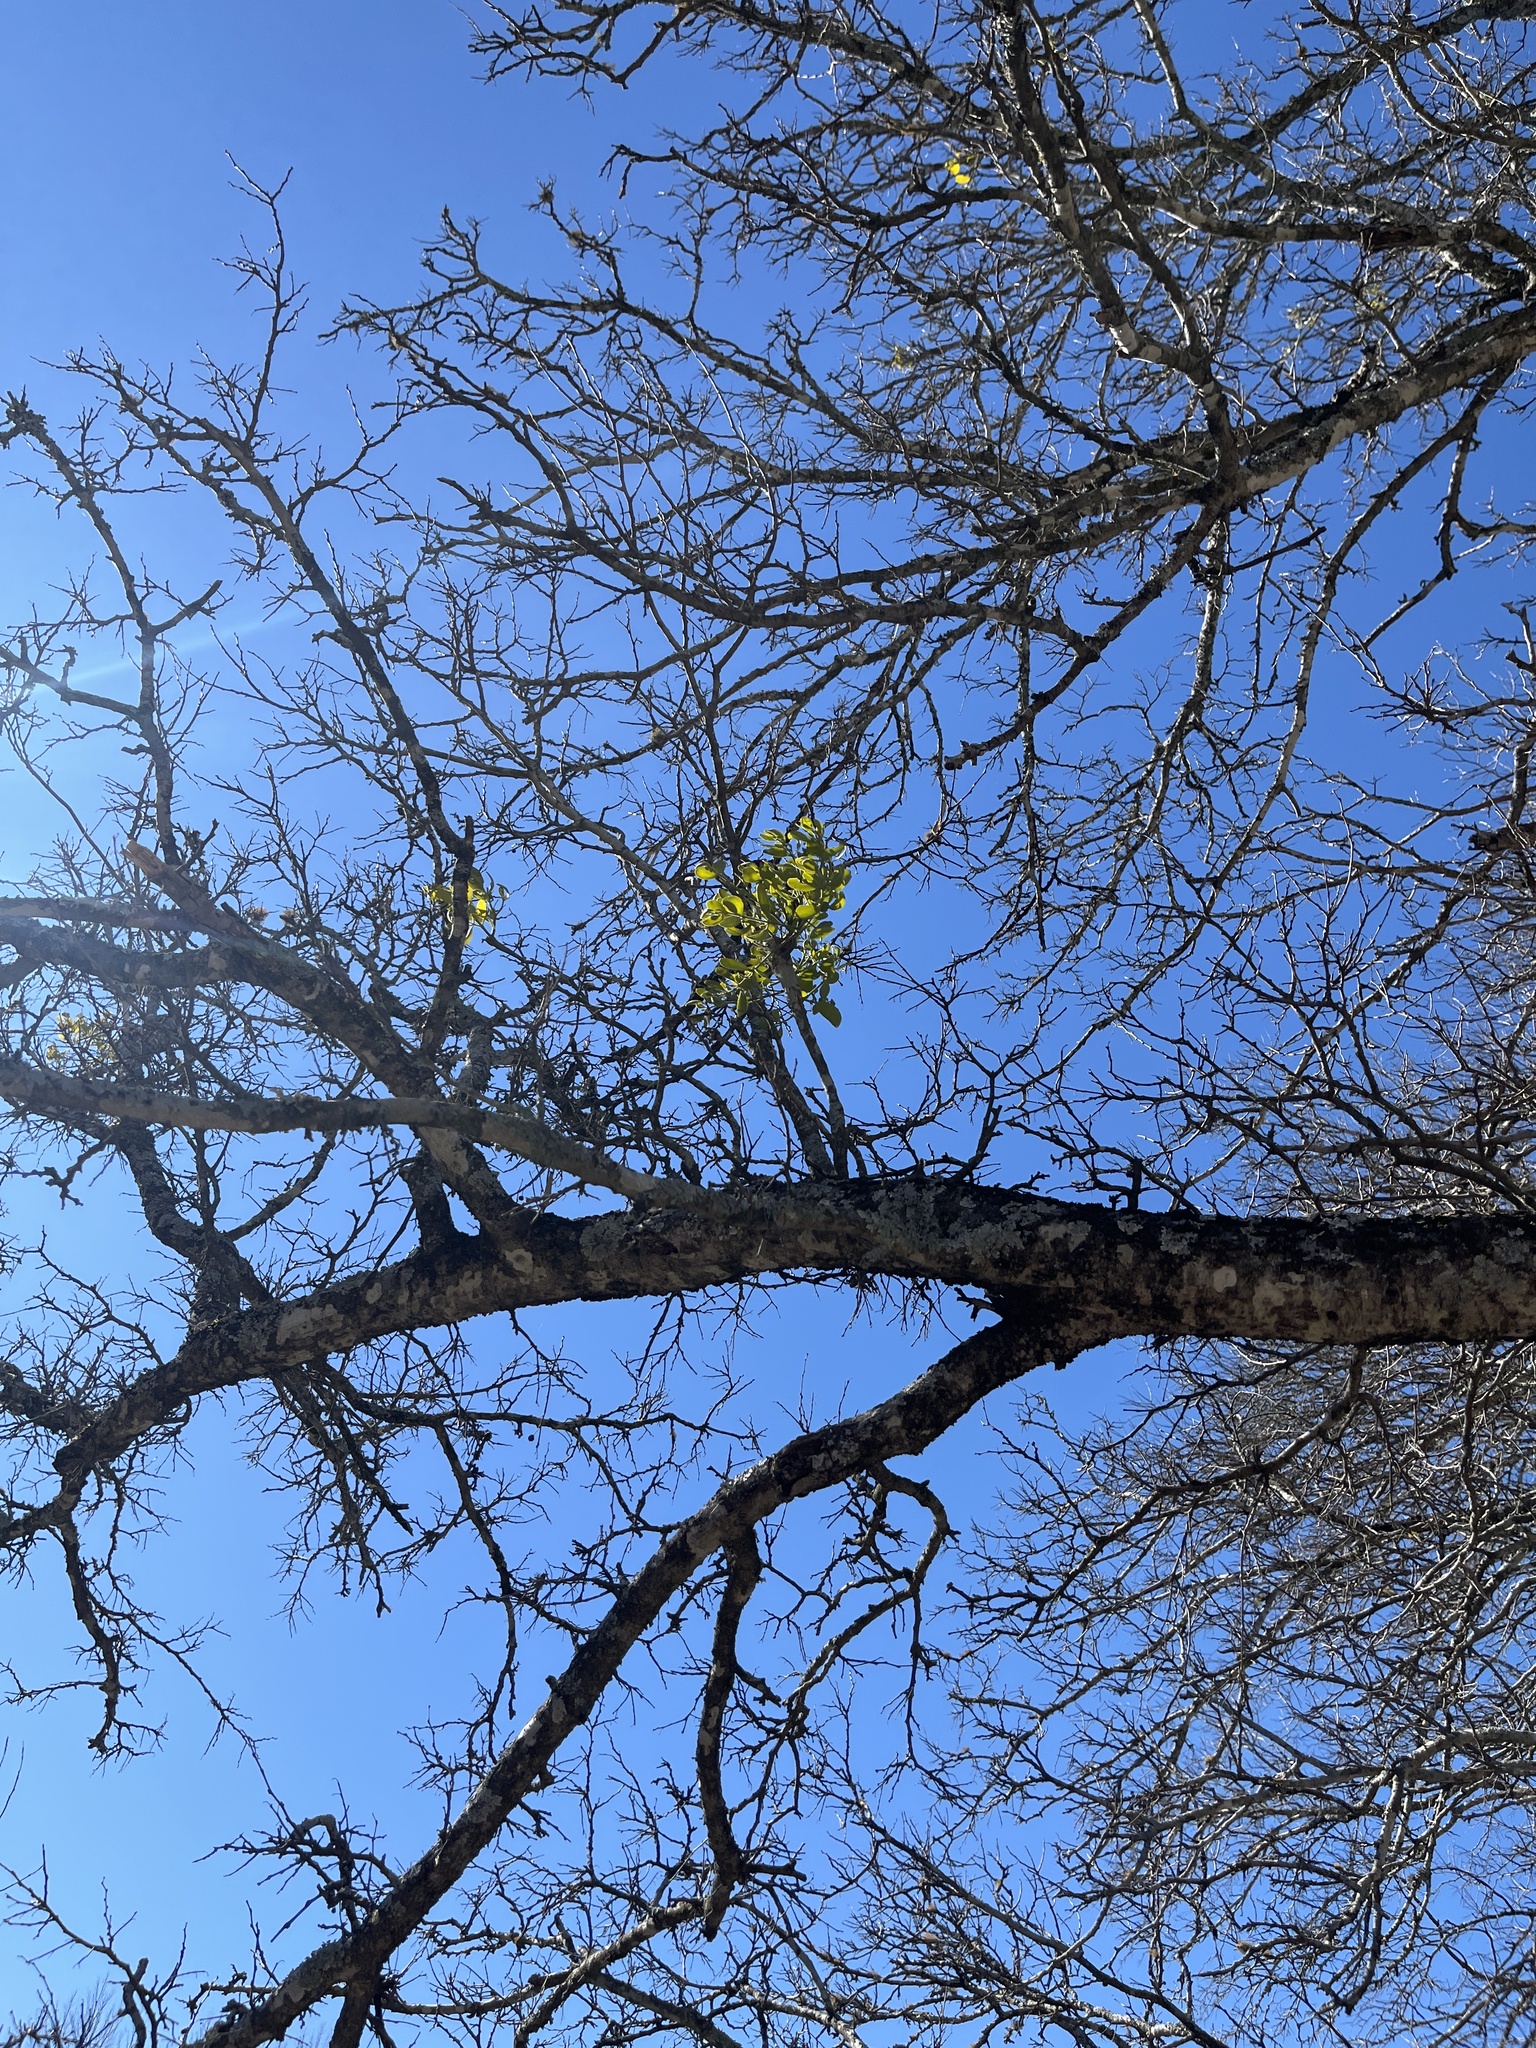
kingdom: Plantae
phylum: Tracheophyta
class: Magnoliopsida
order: Santalales
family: Viscaceae
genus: Phoradendron
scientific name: Phoradendron leucarpum
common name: Pacific mistletoe
